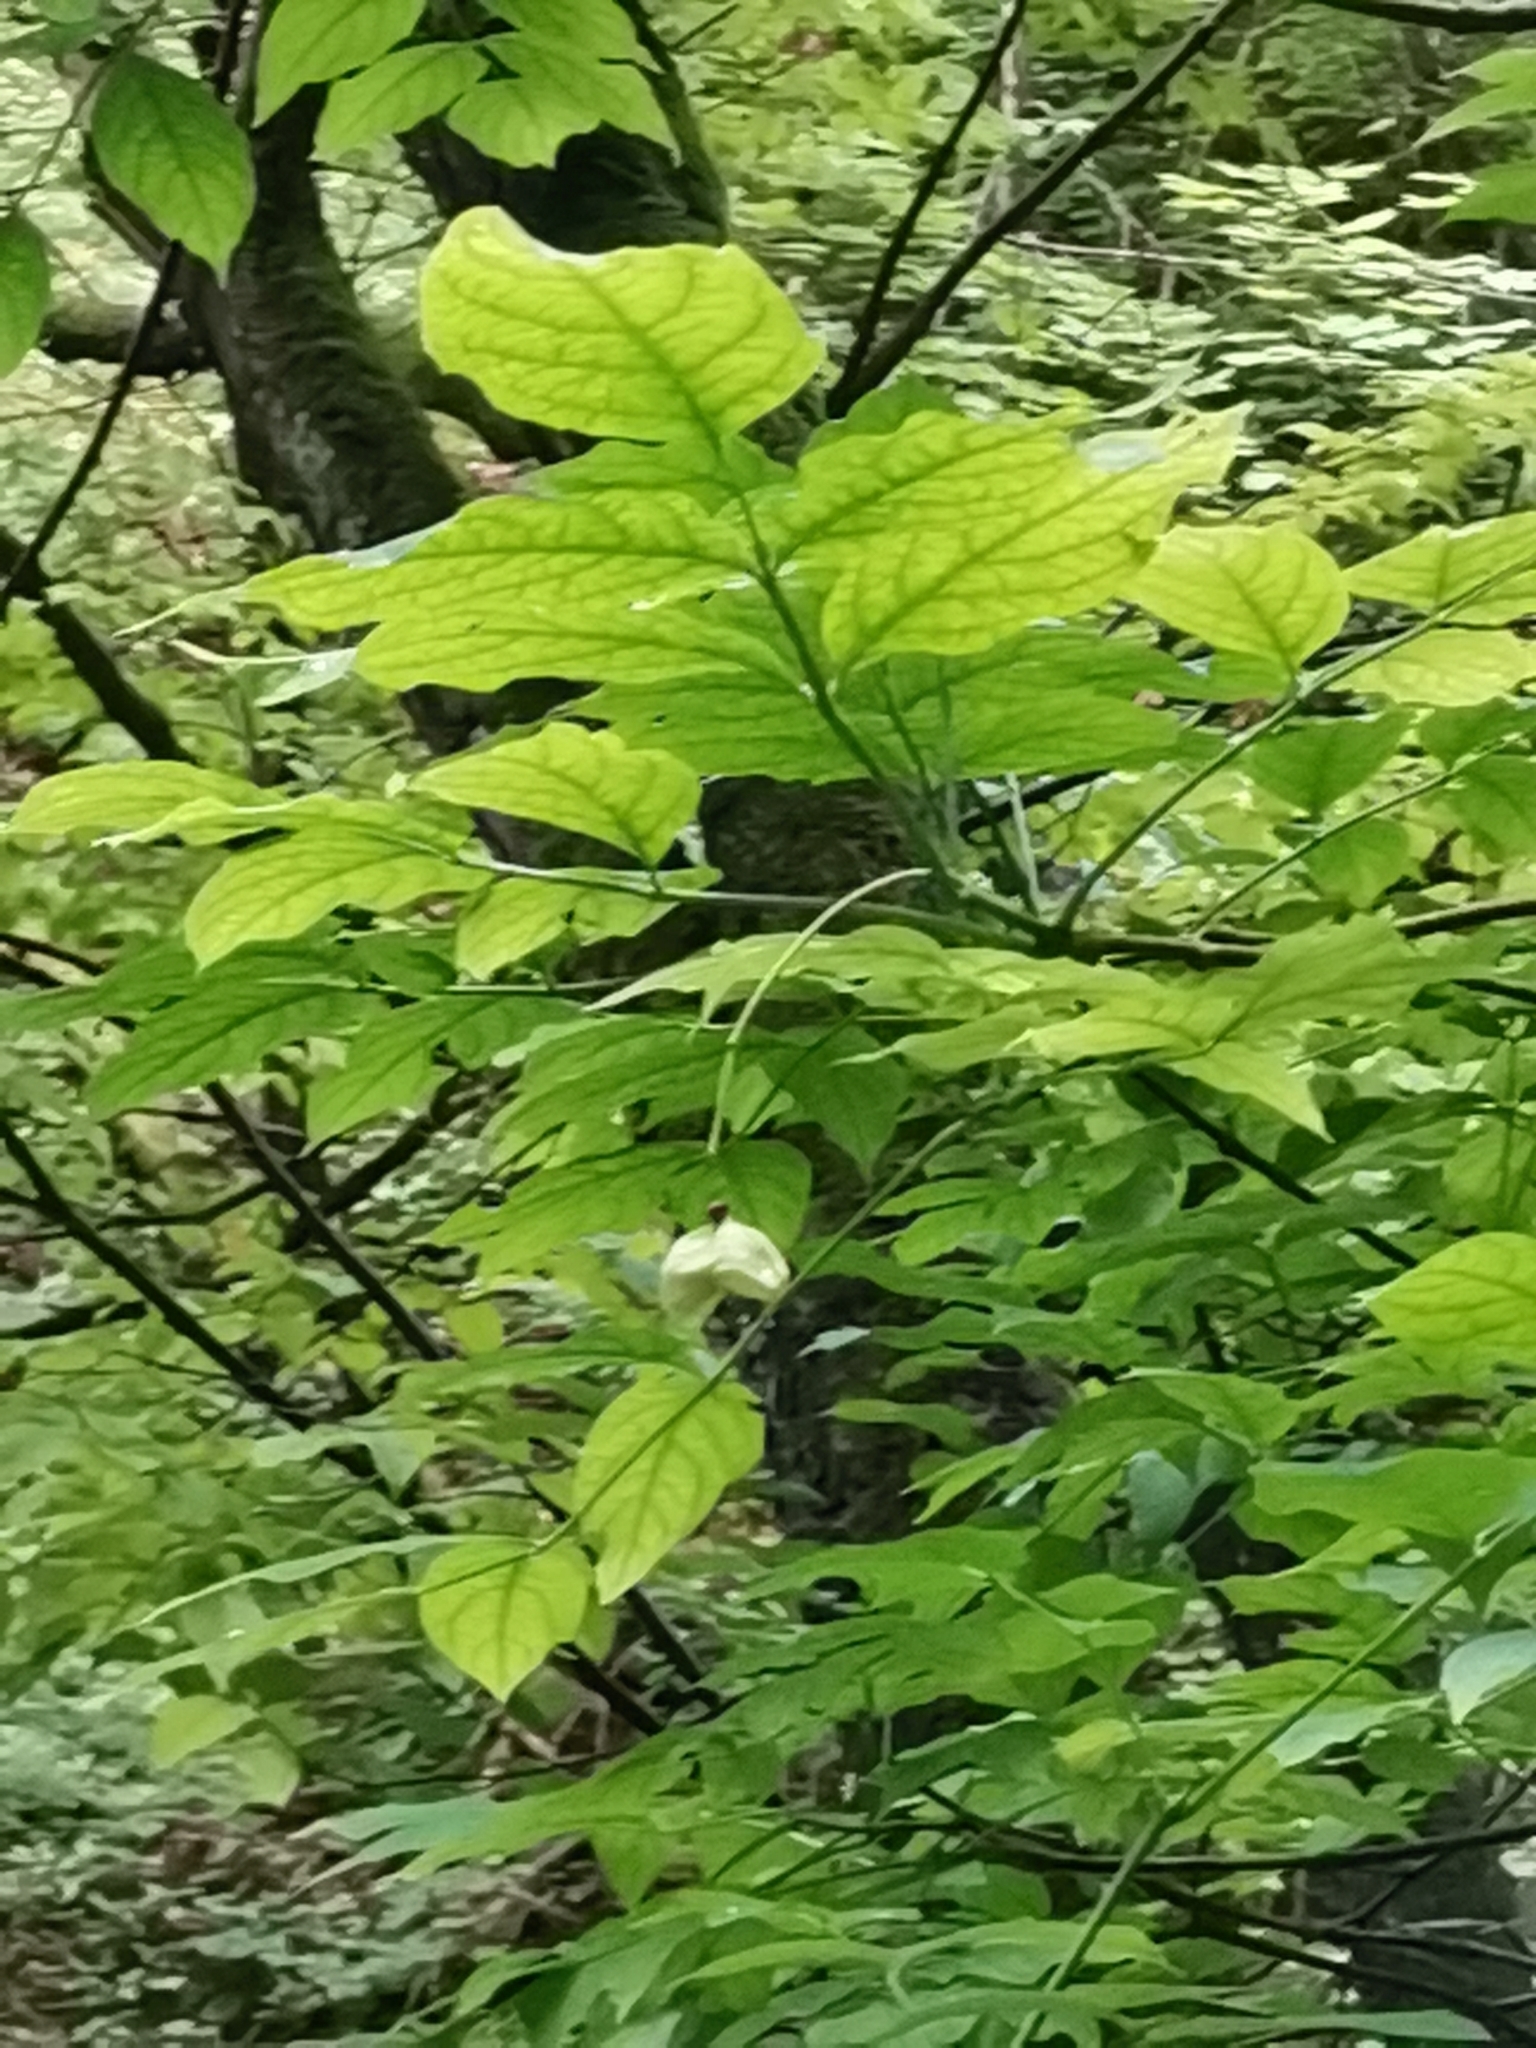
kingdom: Plantae
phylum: Tracheophyta
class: Magnoliopsida
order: Crossosomatales
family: Staphyleaceae
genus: Staphylea
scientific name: Staphylea pinnata
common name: Bladdernut
